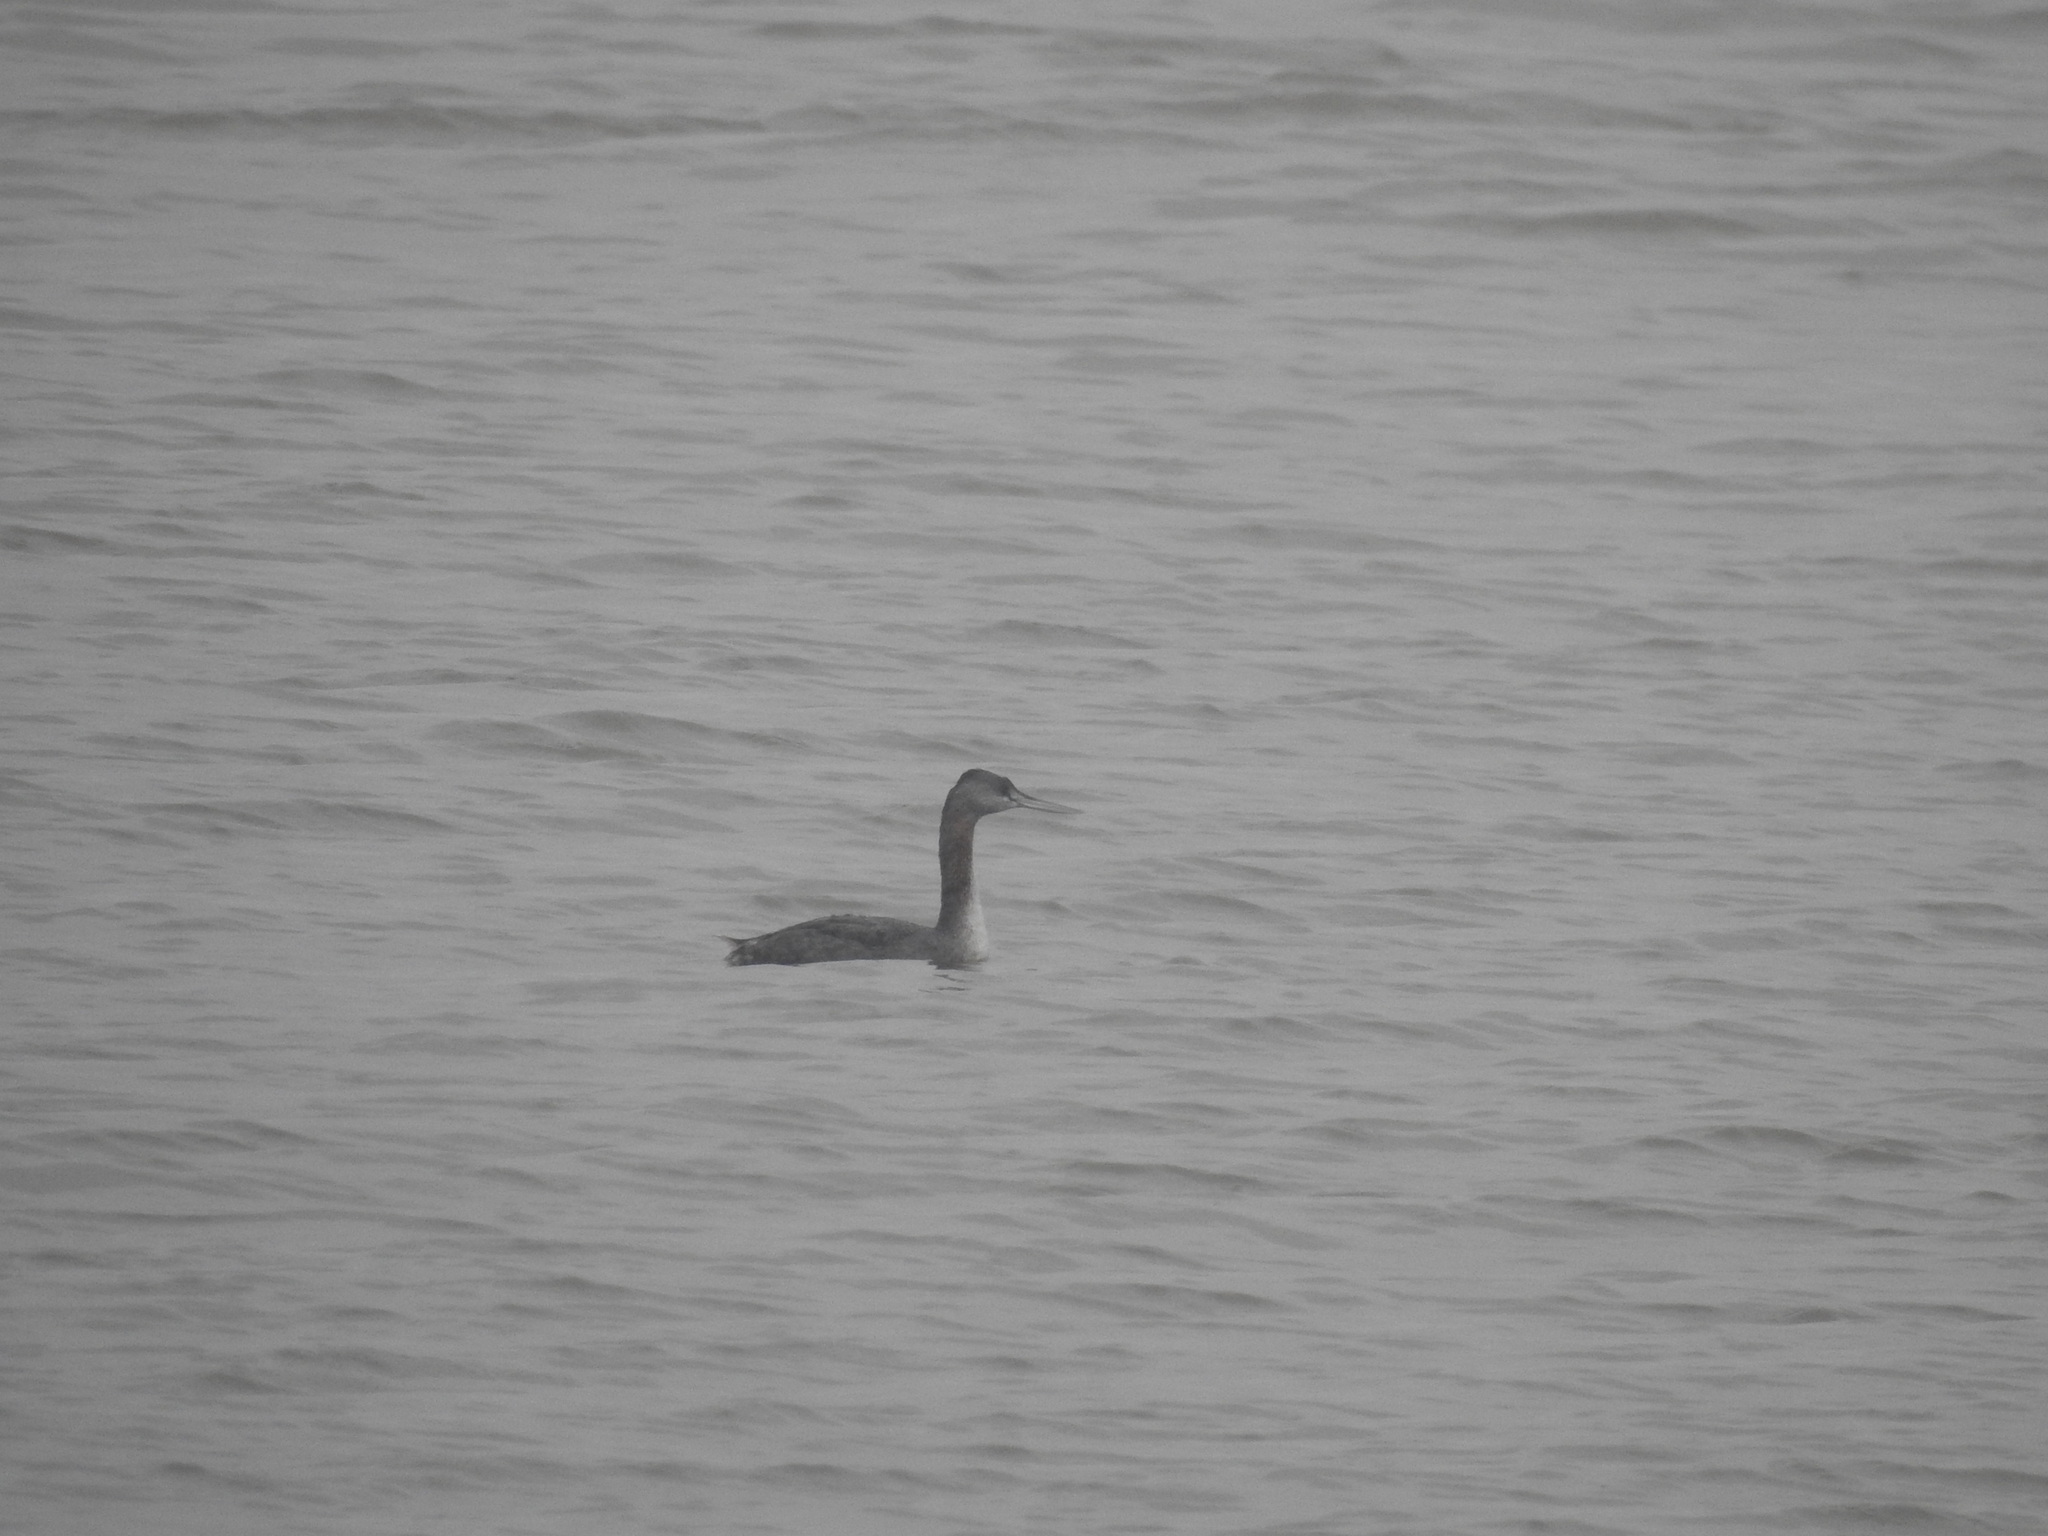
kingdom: Animalia
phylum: Chordata
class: Aves
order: Podicipediformes
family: Podicipedidae
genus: Podiceps
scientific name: Podiceps major
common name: Great grebe
